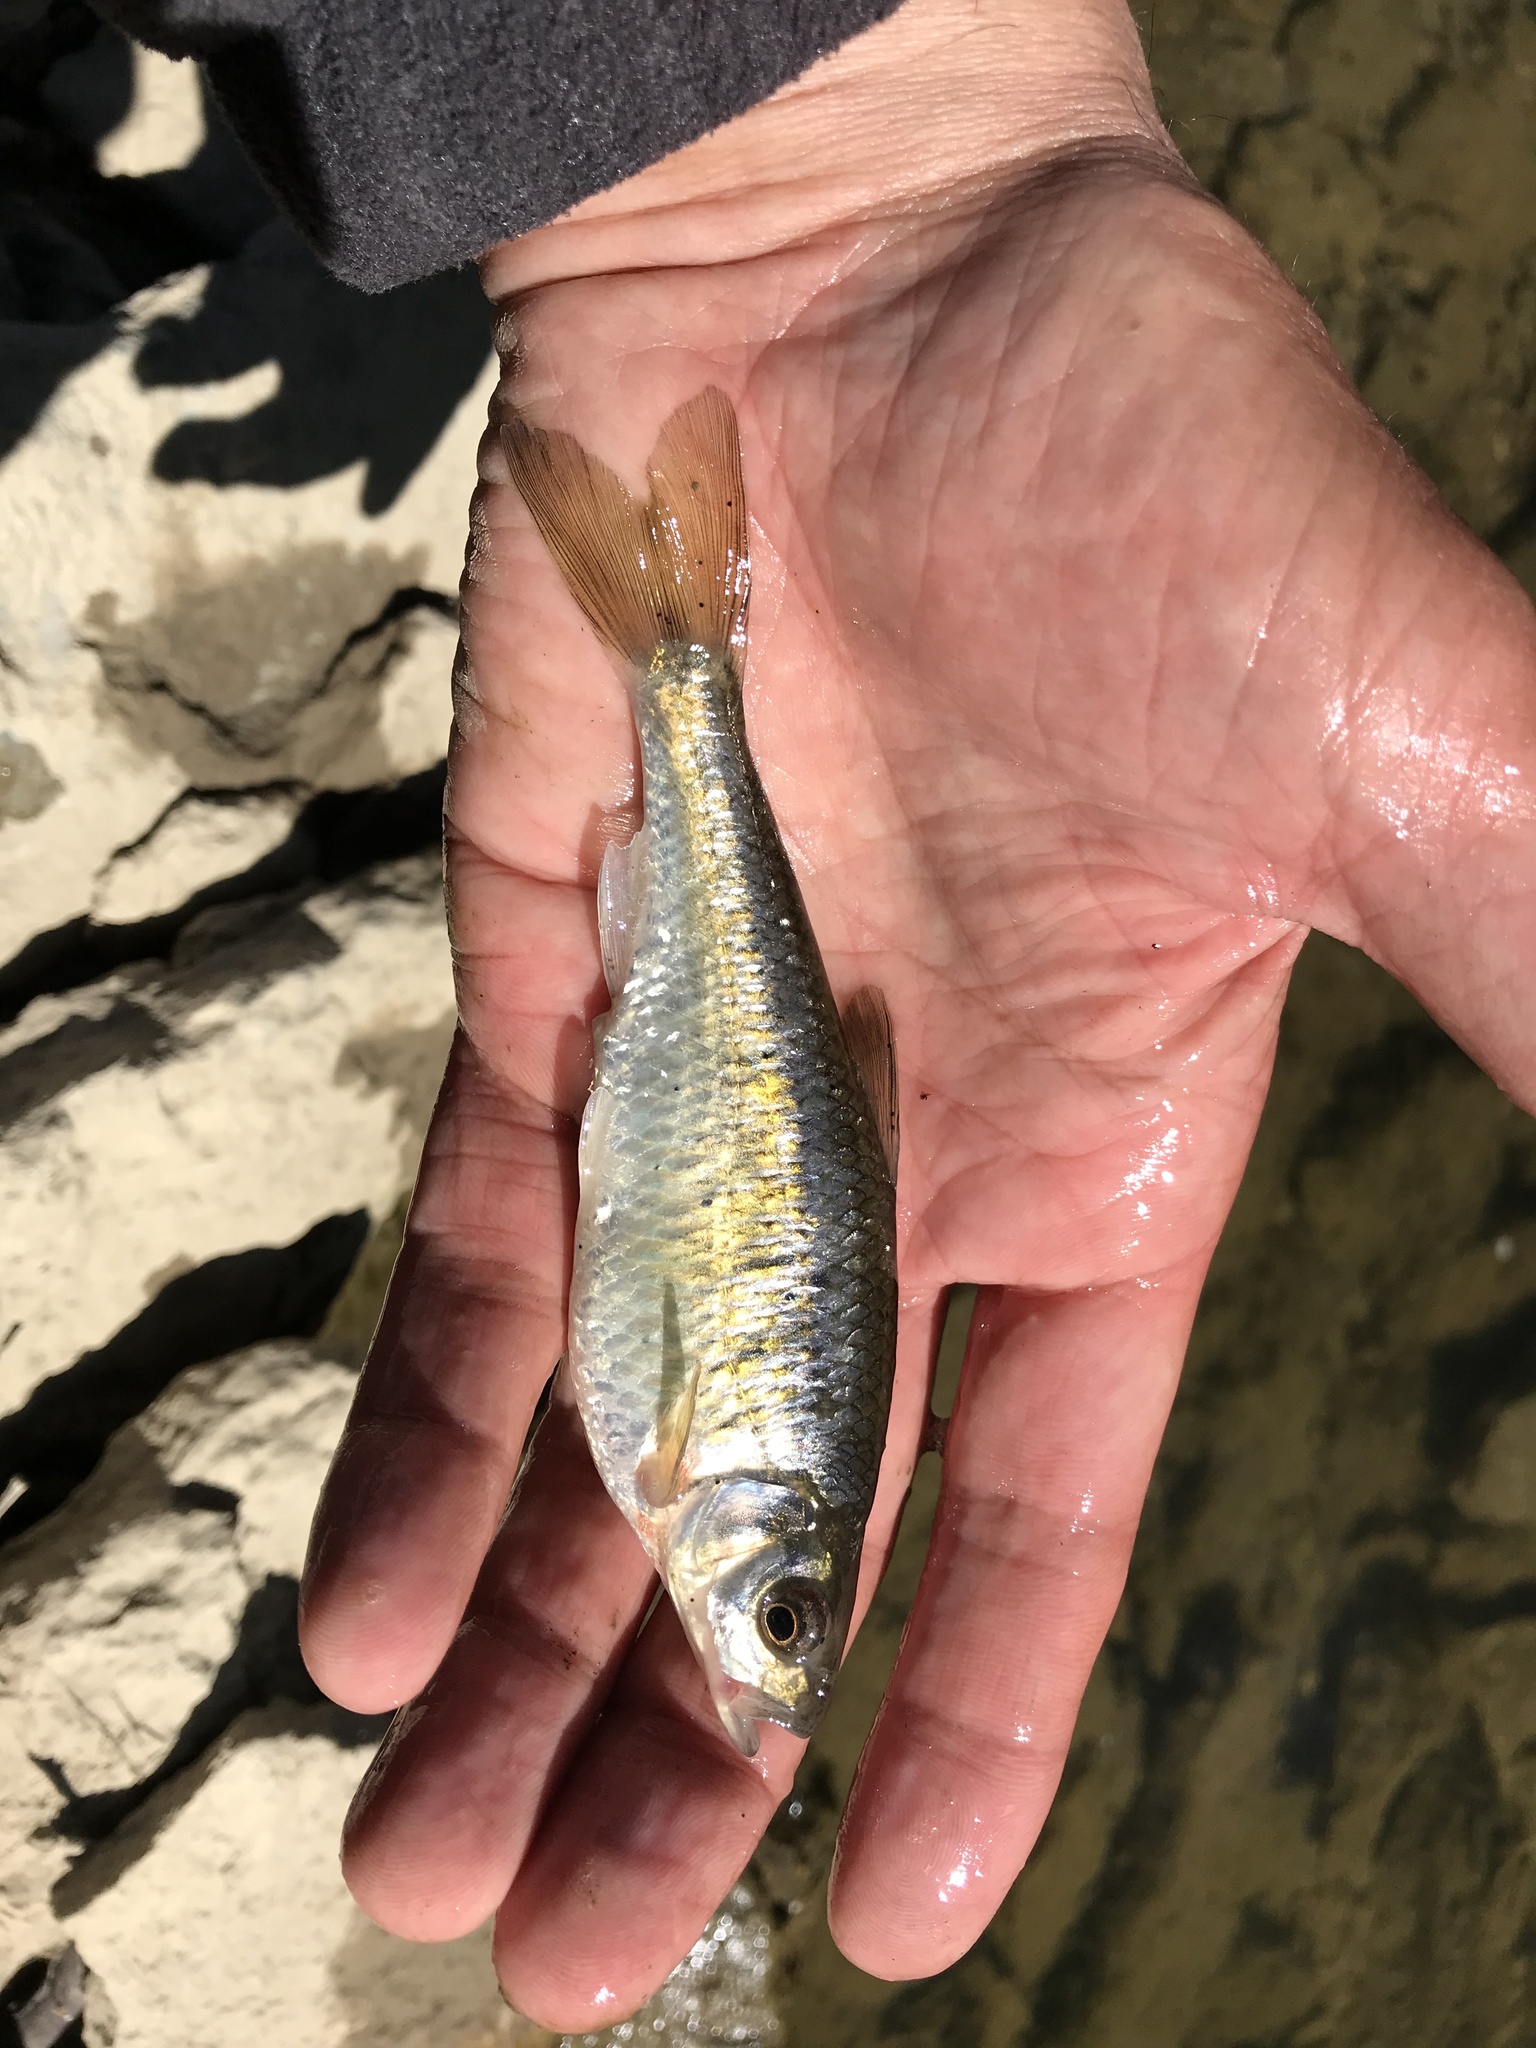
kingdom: Animalia
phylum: Chordata
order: Cypriniformes
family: Cyprinidae
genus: Luxilus
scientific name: Luxilus chrysocephalus
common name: Striped shiner
